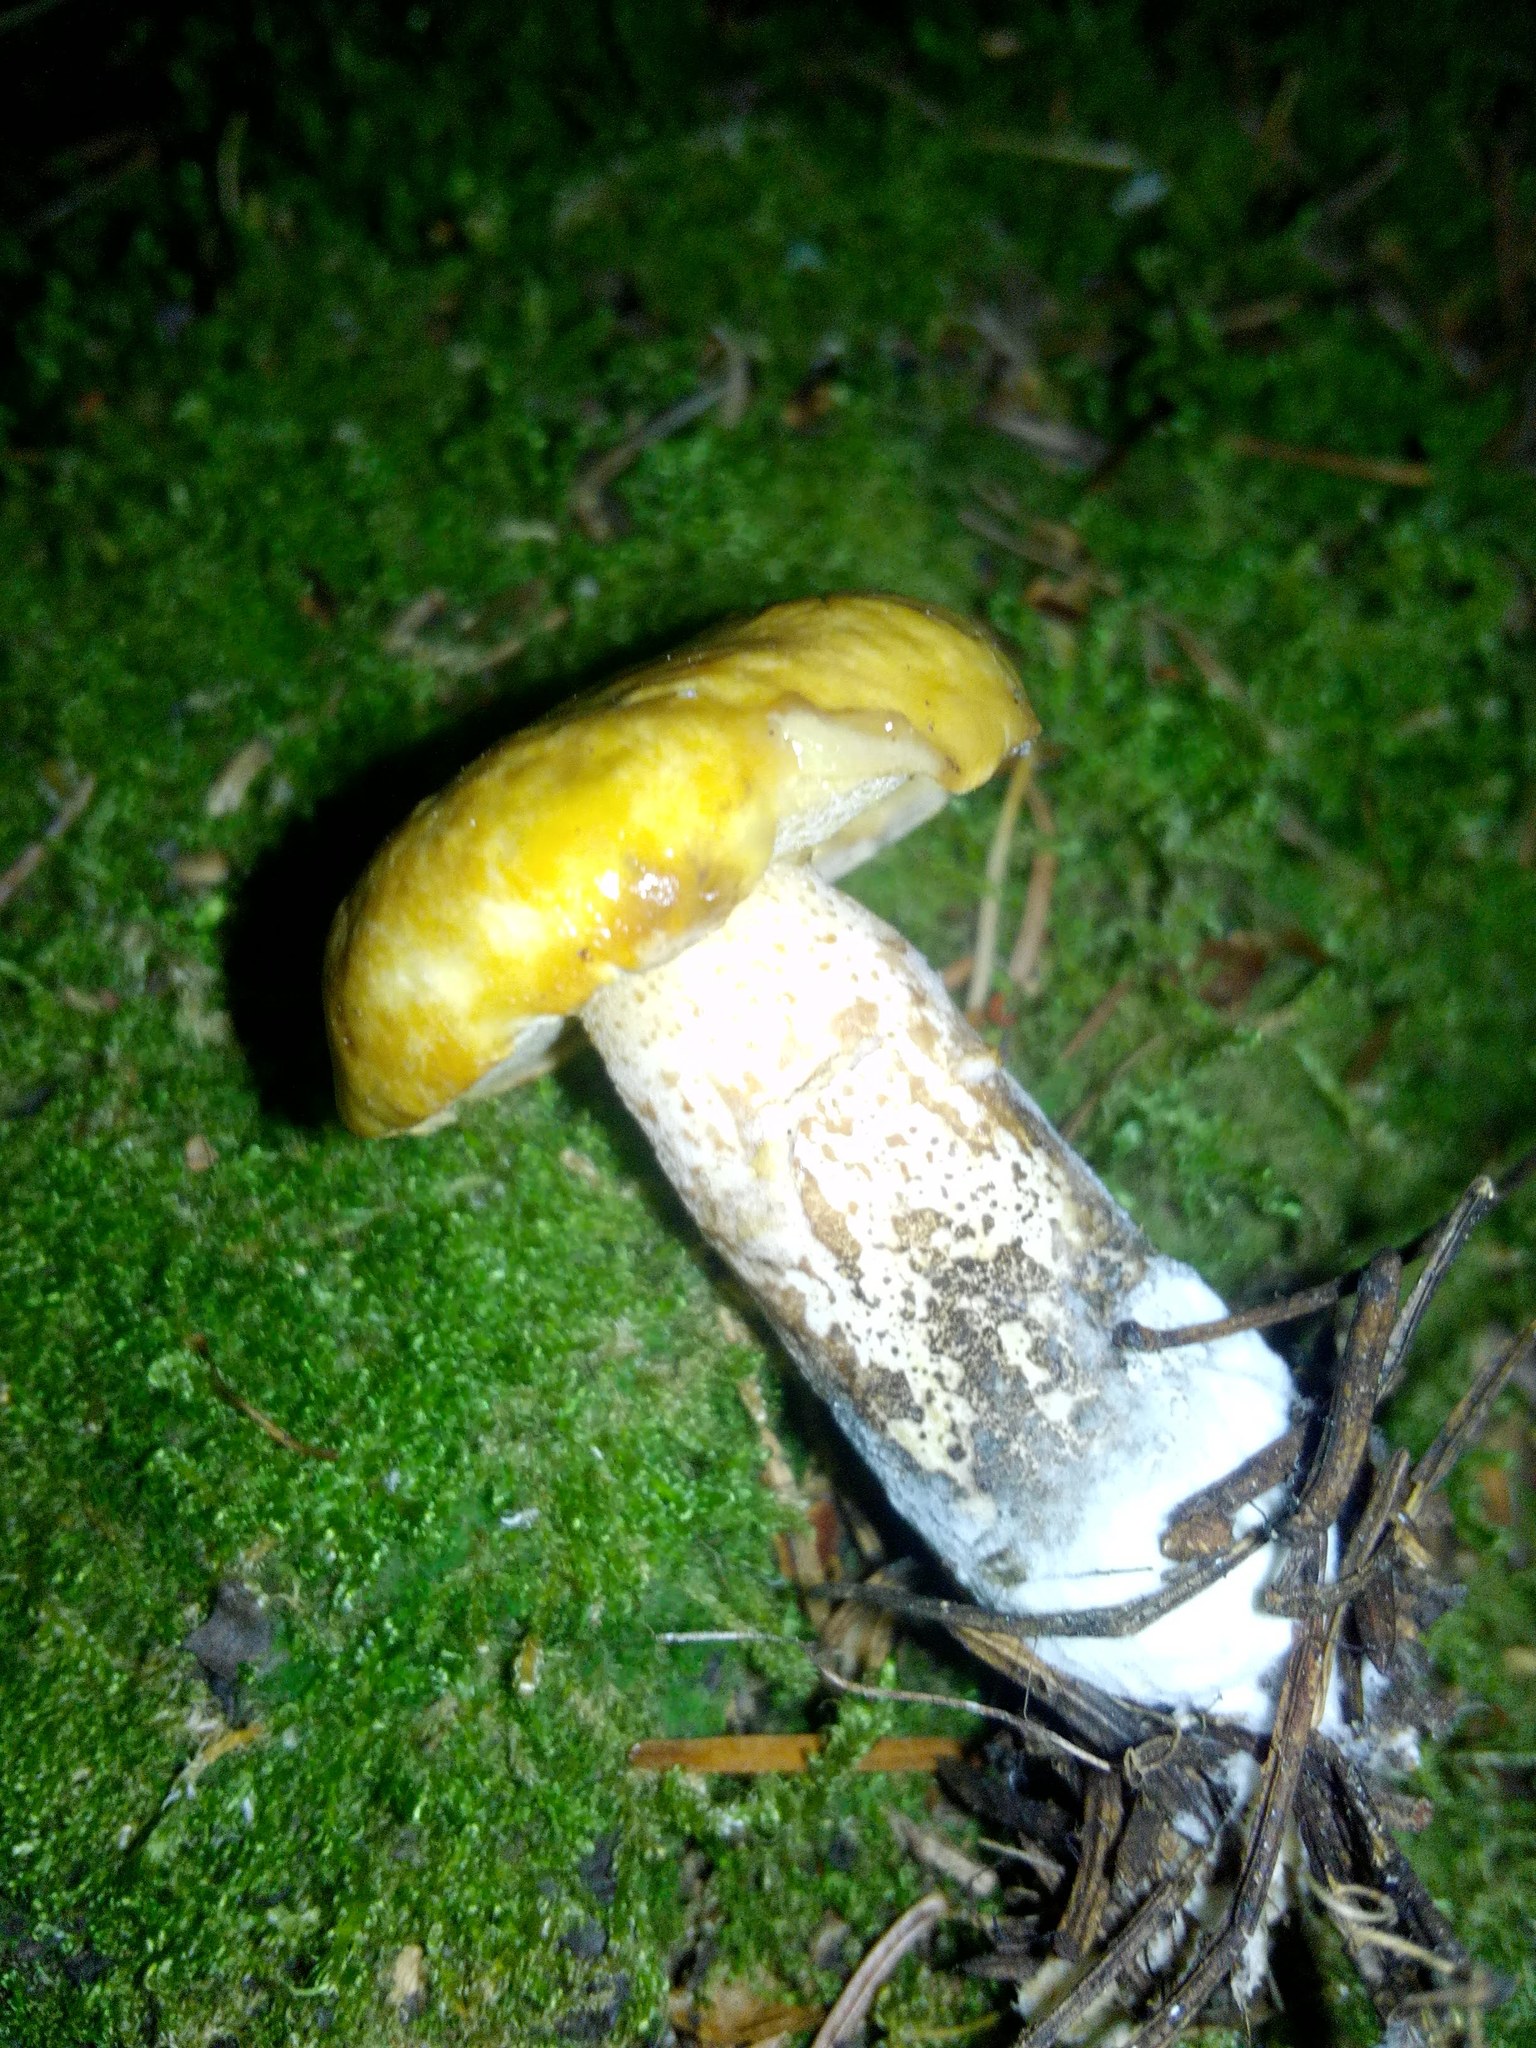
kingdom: Fungi
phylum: Basidiomycota
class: Agaricomycetes
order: Boletales
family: Suillaceae
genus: Suillus
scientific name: Suillus acidus
